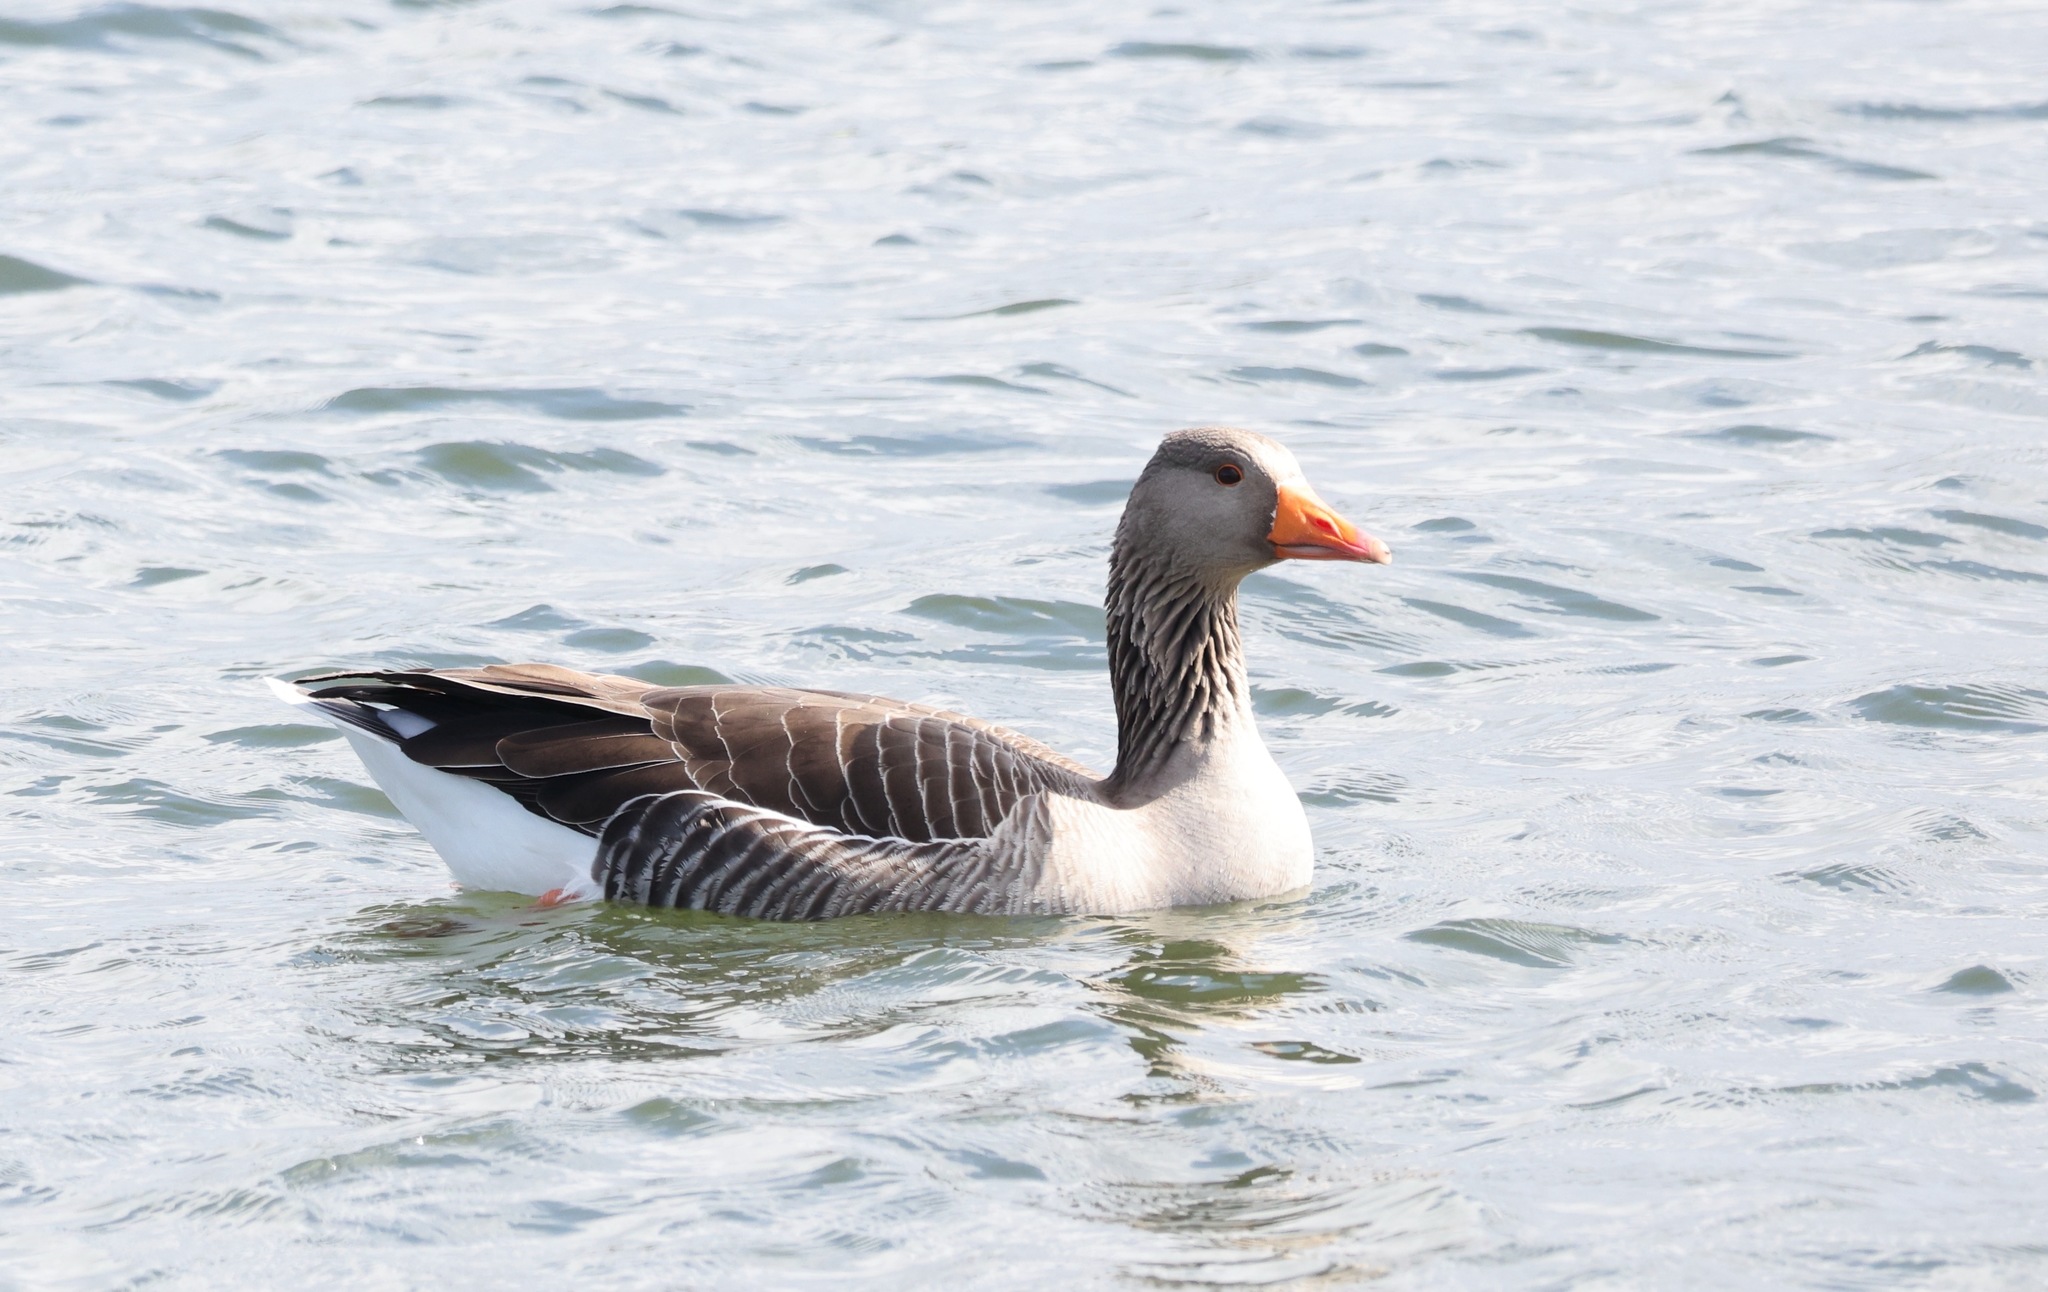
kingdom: Animalia
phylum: Chordata
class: Aves
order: Anseriformes
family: Anatidae
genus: Anser
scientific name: Anser anser
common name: Greylag goose
